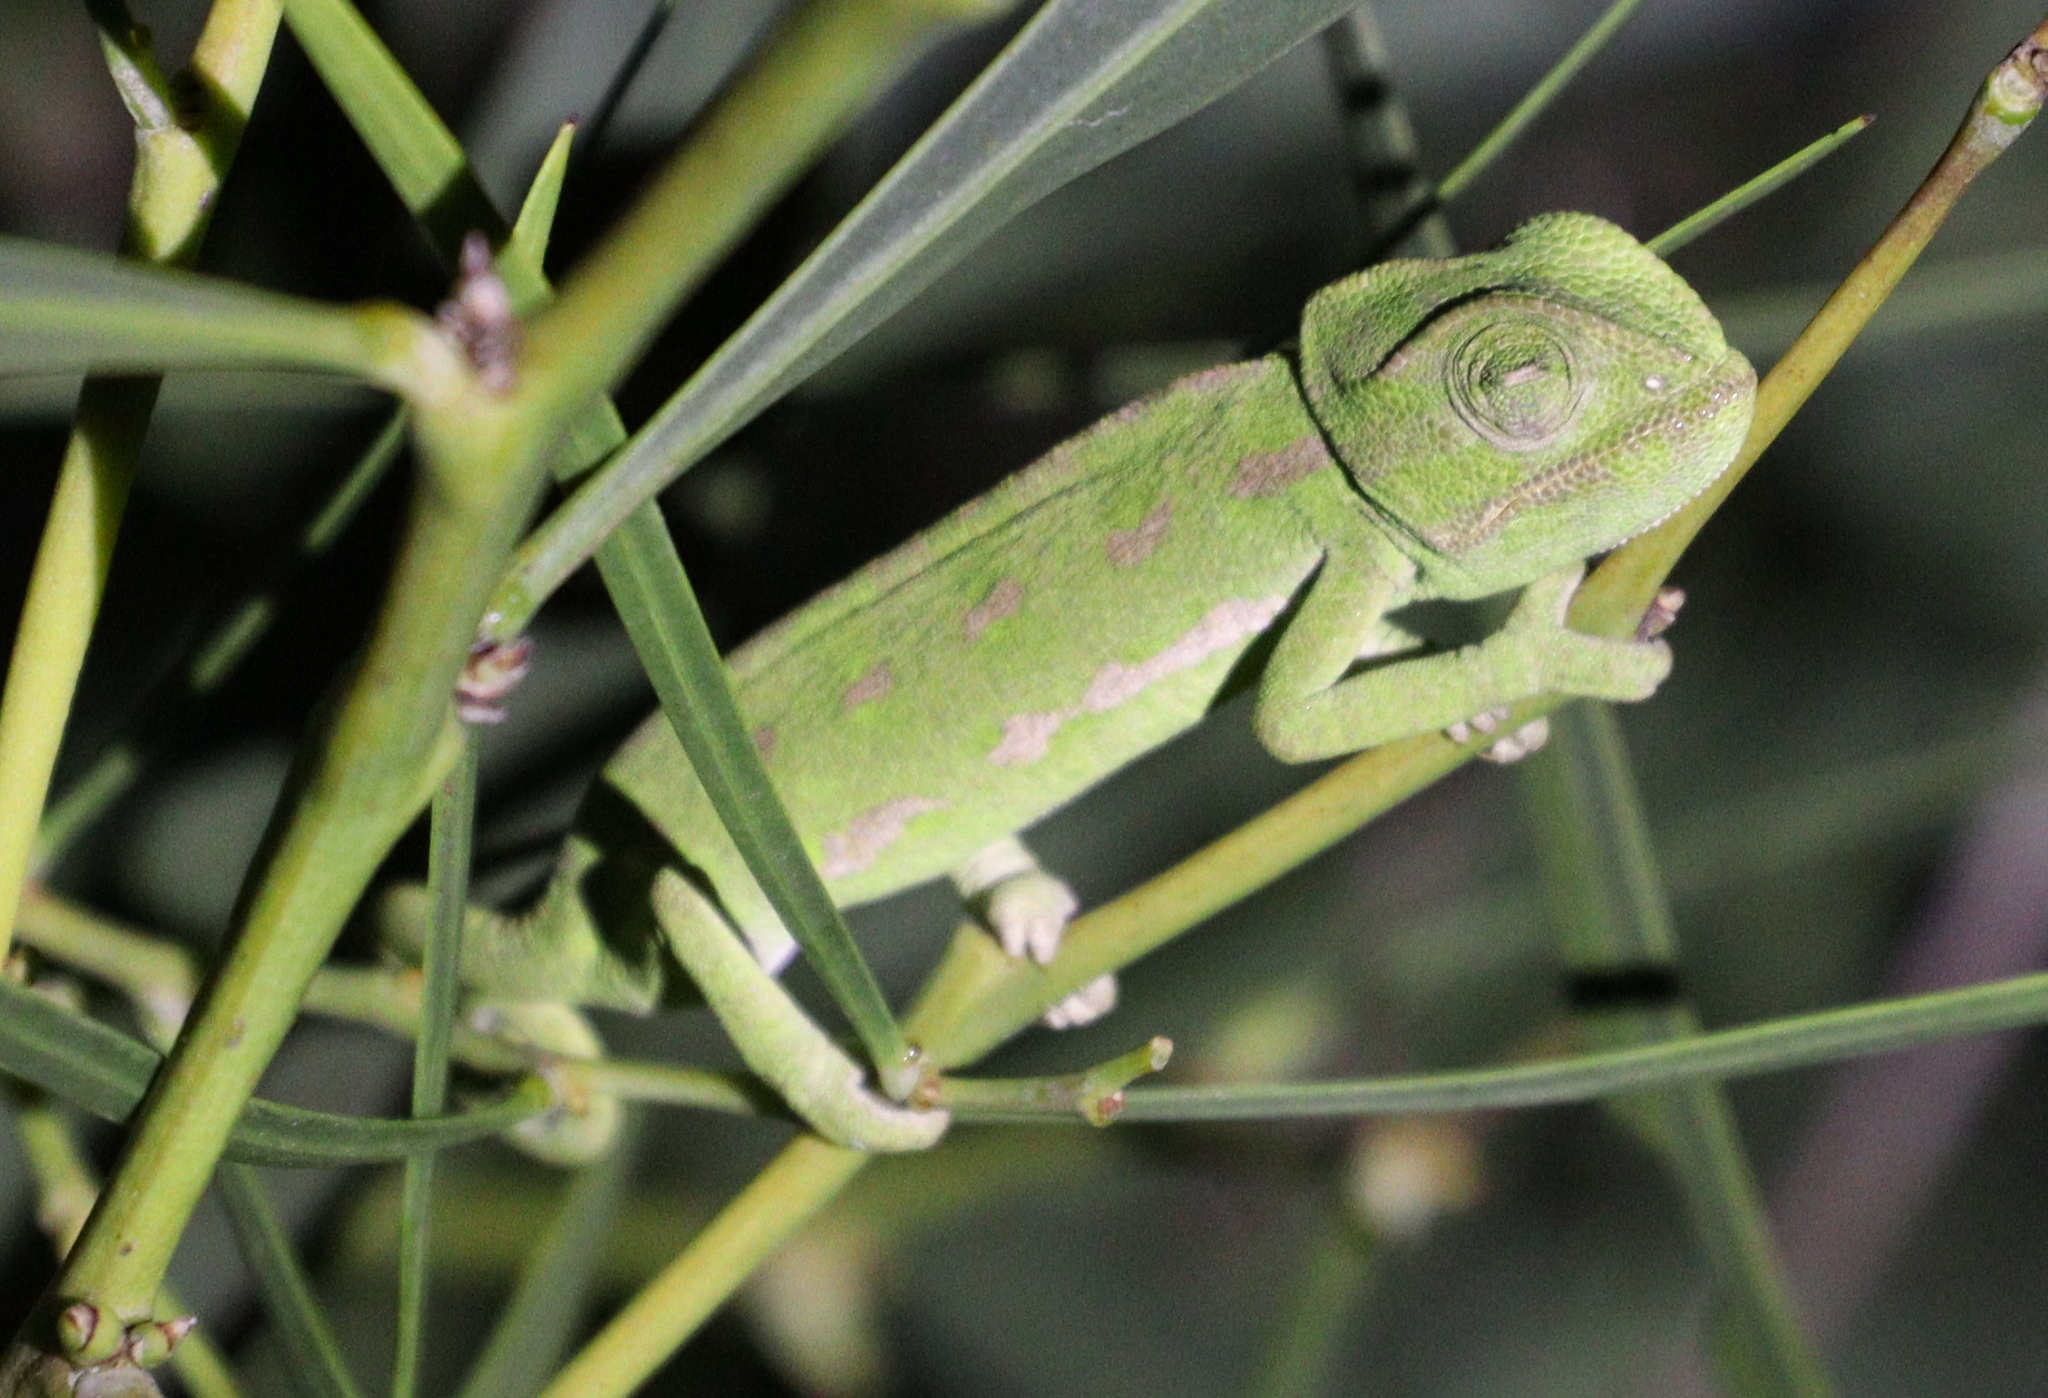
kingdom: Animalia
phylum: Chordata
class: Squamata
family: Chamaeleonidae
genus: Chamaeleo
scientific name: Chamaeleo chamaeleon
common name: Mediterranean chameleon
